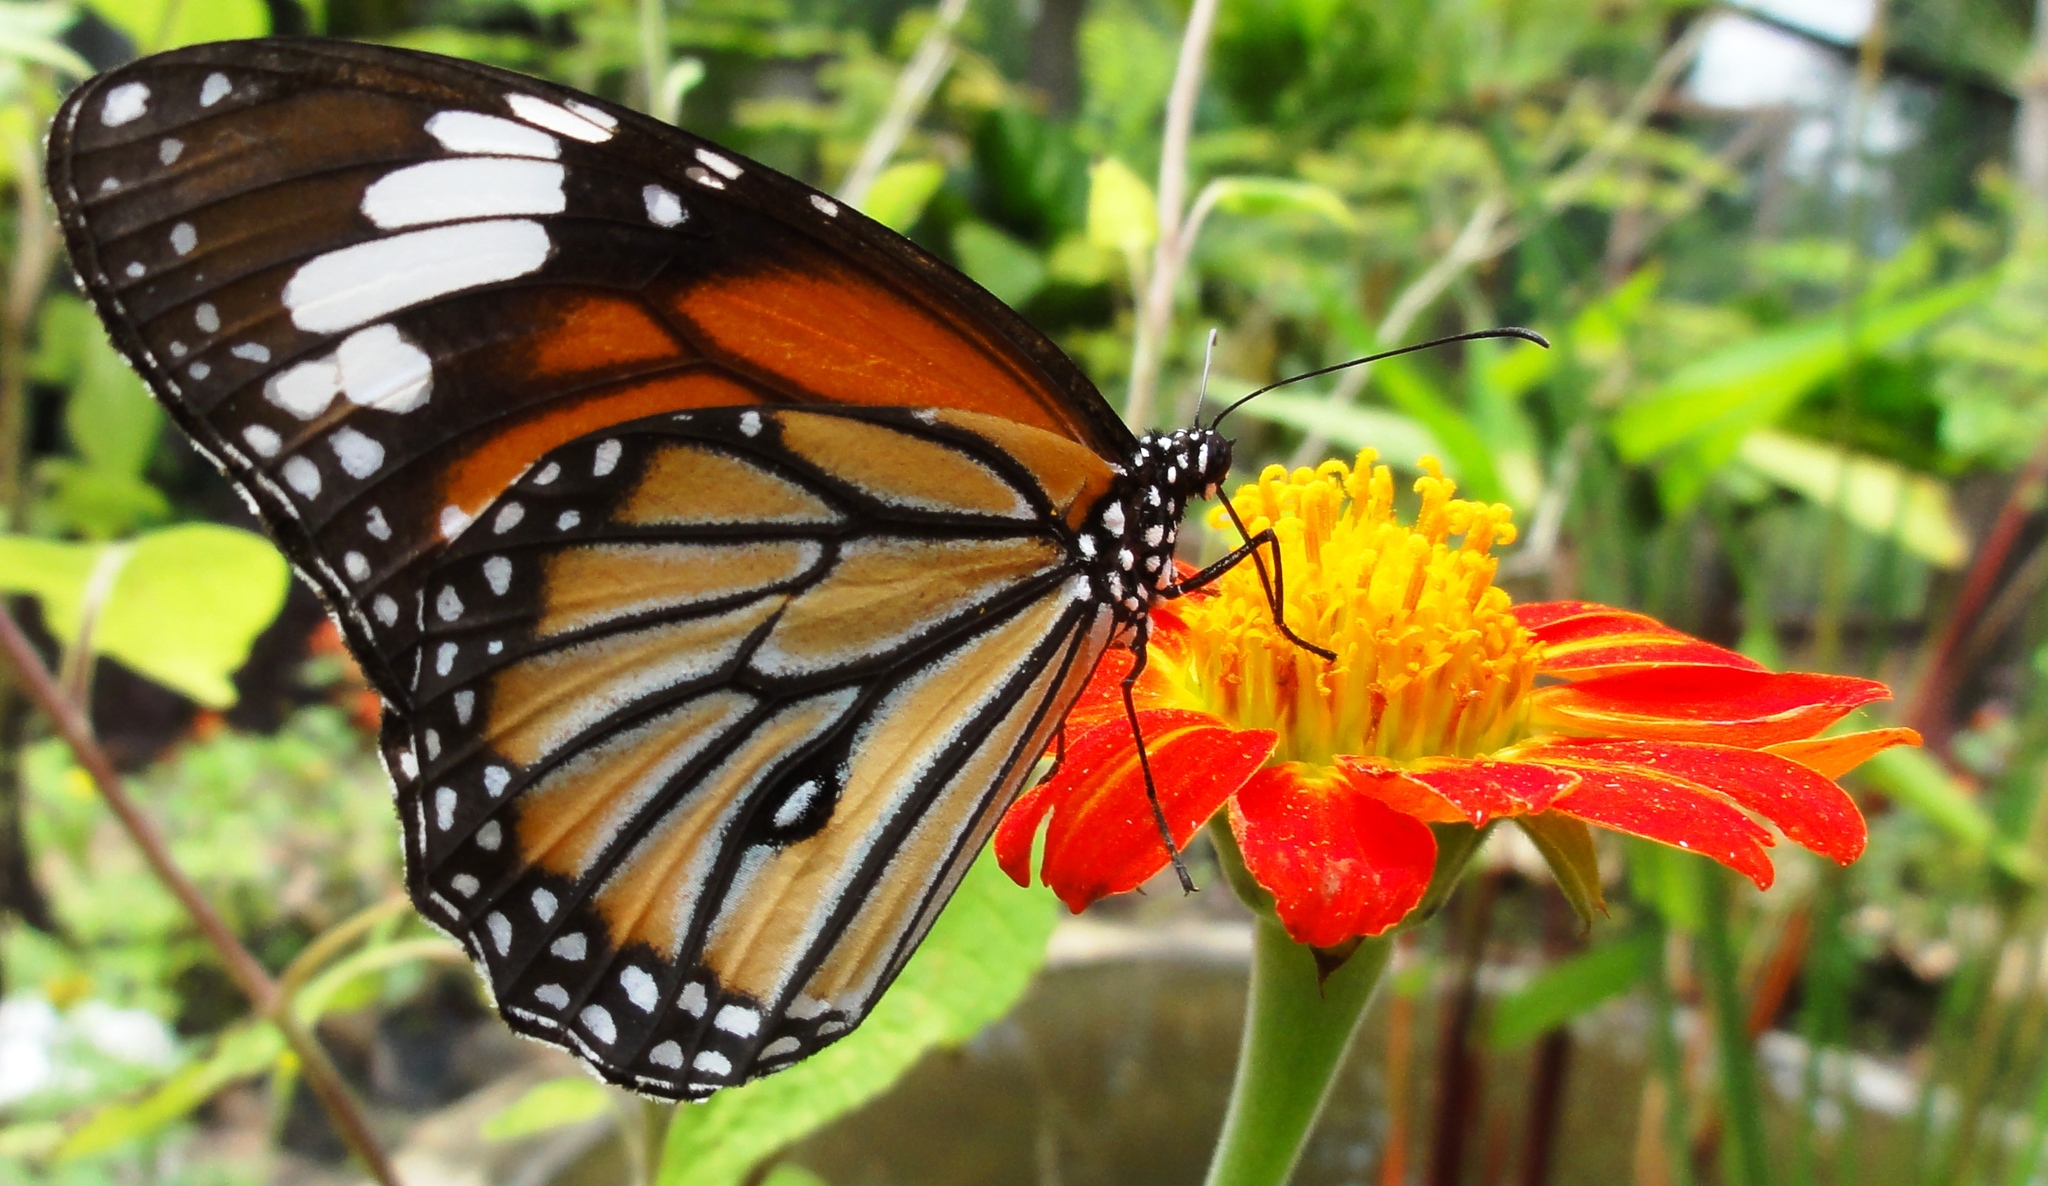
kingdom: Animalia
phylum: Arthropoda
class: Insecta
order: Lepidoptera
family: Nymphalidae
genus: Danaus
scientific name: Danaus genutia
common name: Common tiger butterfly
